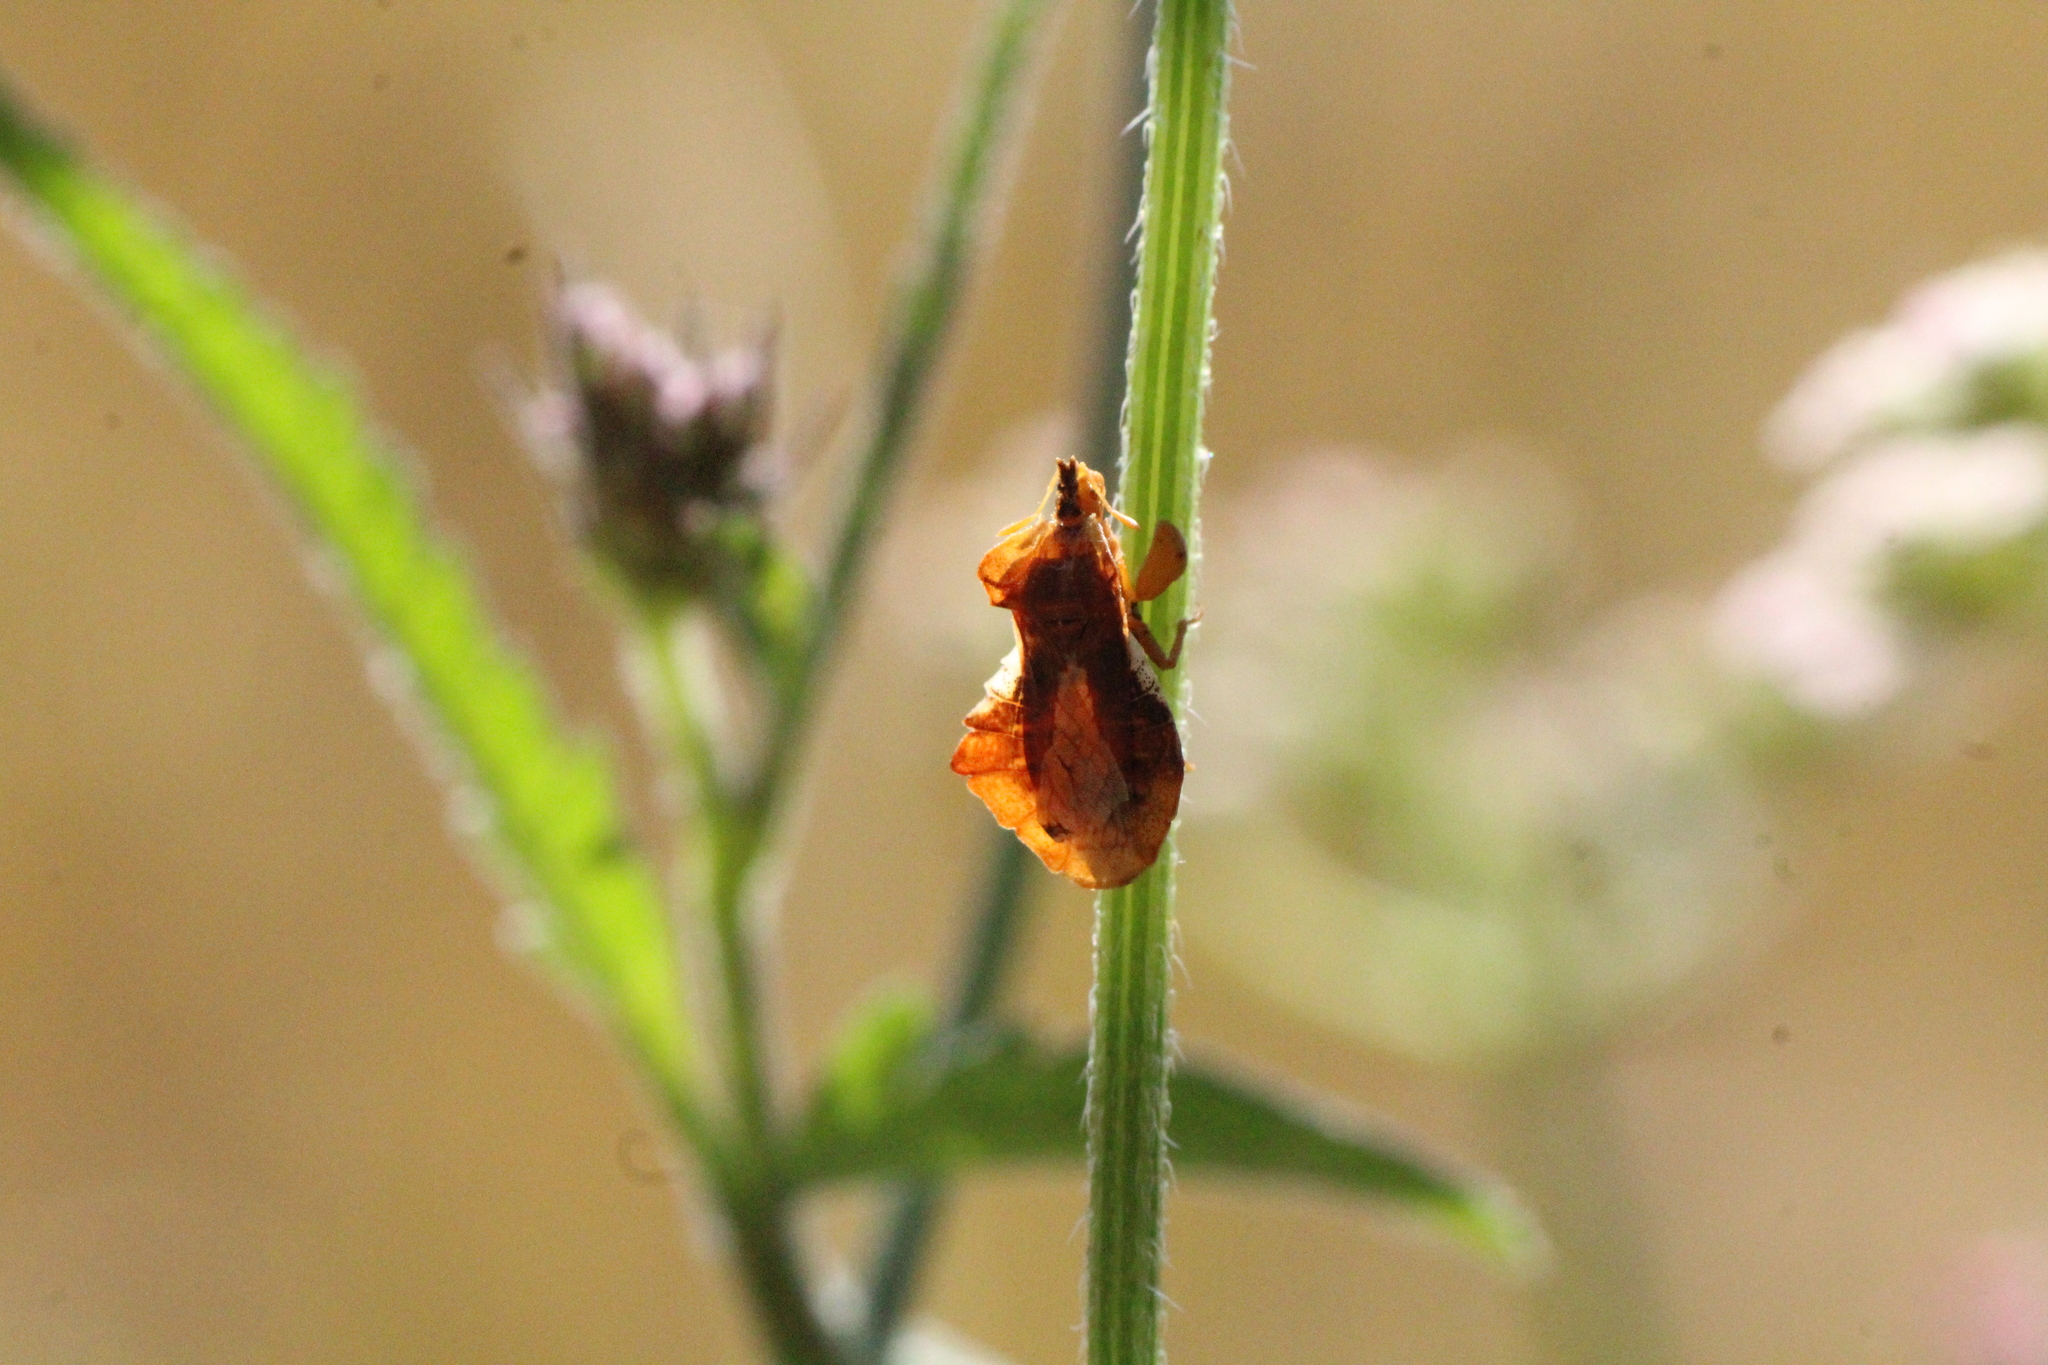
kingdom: Animalia
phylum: Arthropoda
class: Insecta
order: Hemiptera
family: Reduviidae
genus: Phymata
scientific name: Phymata crassipes
